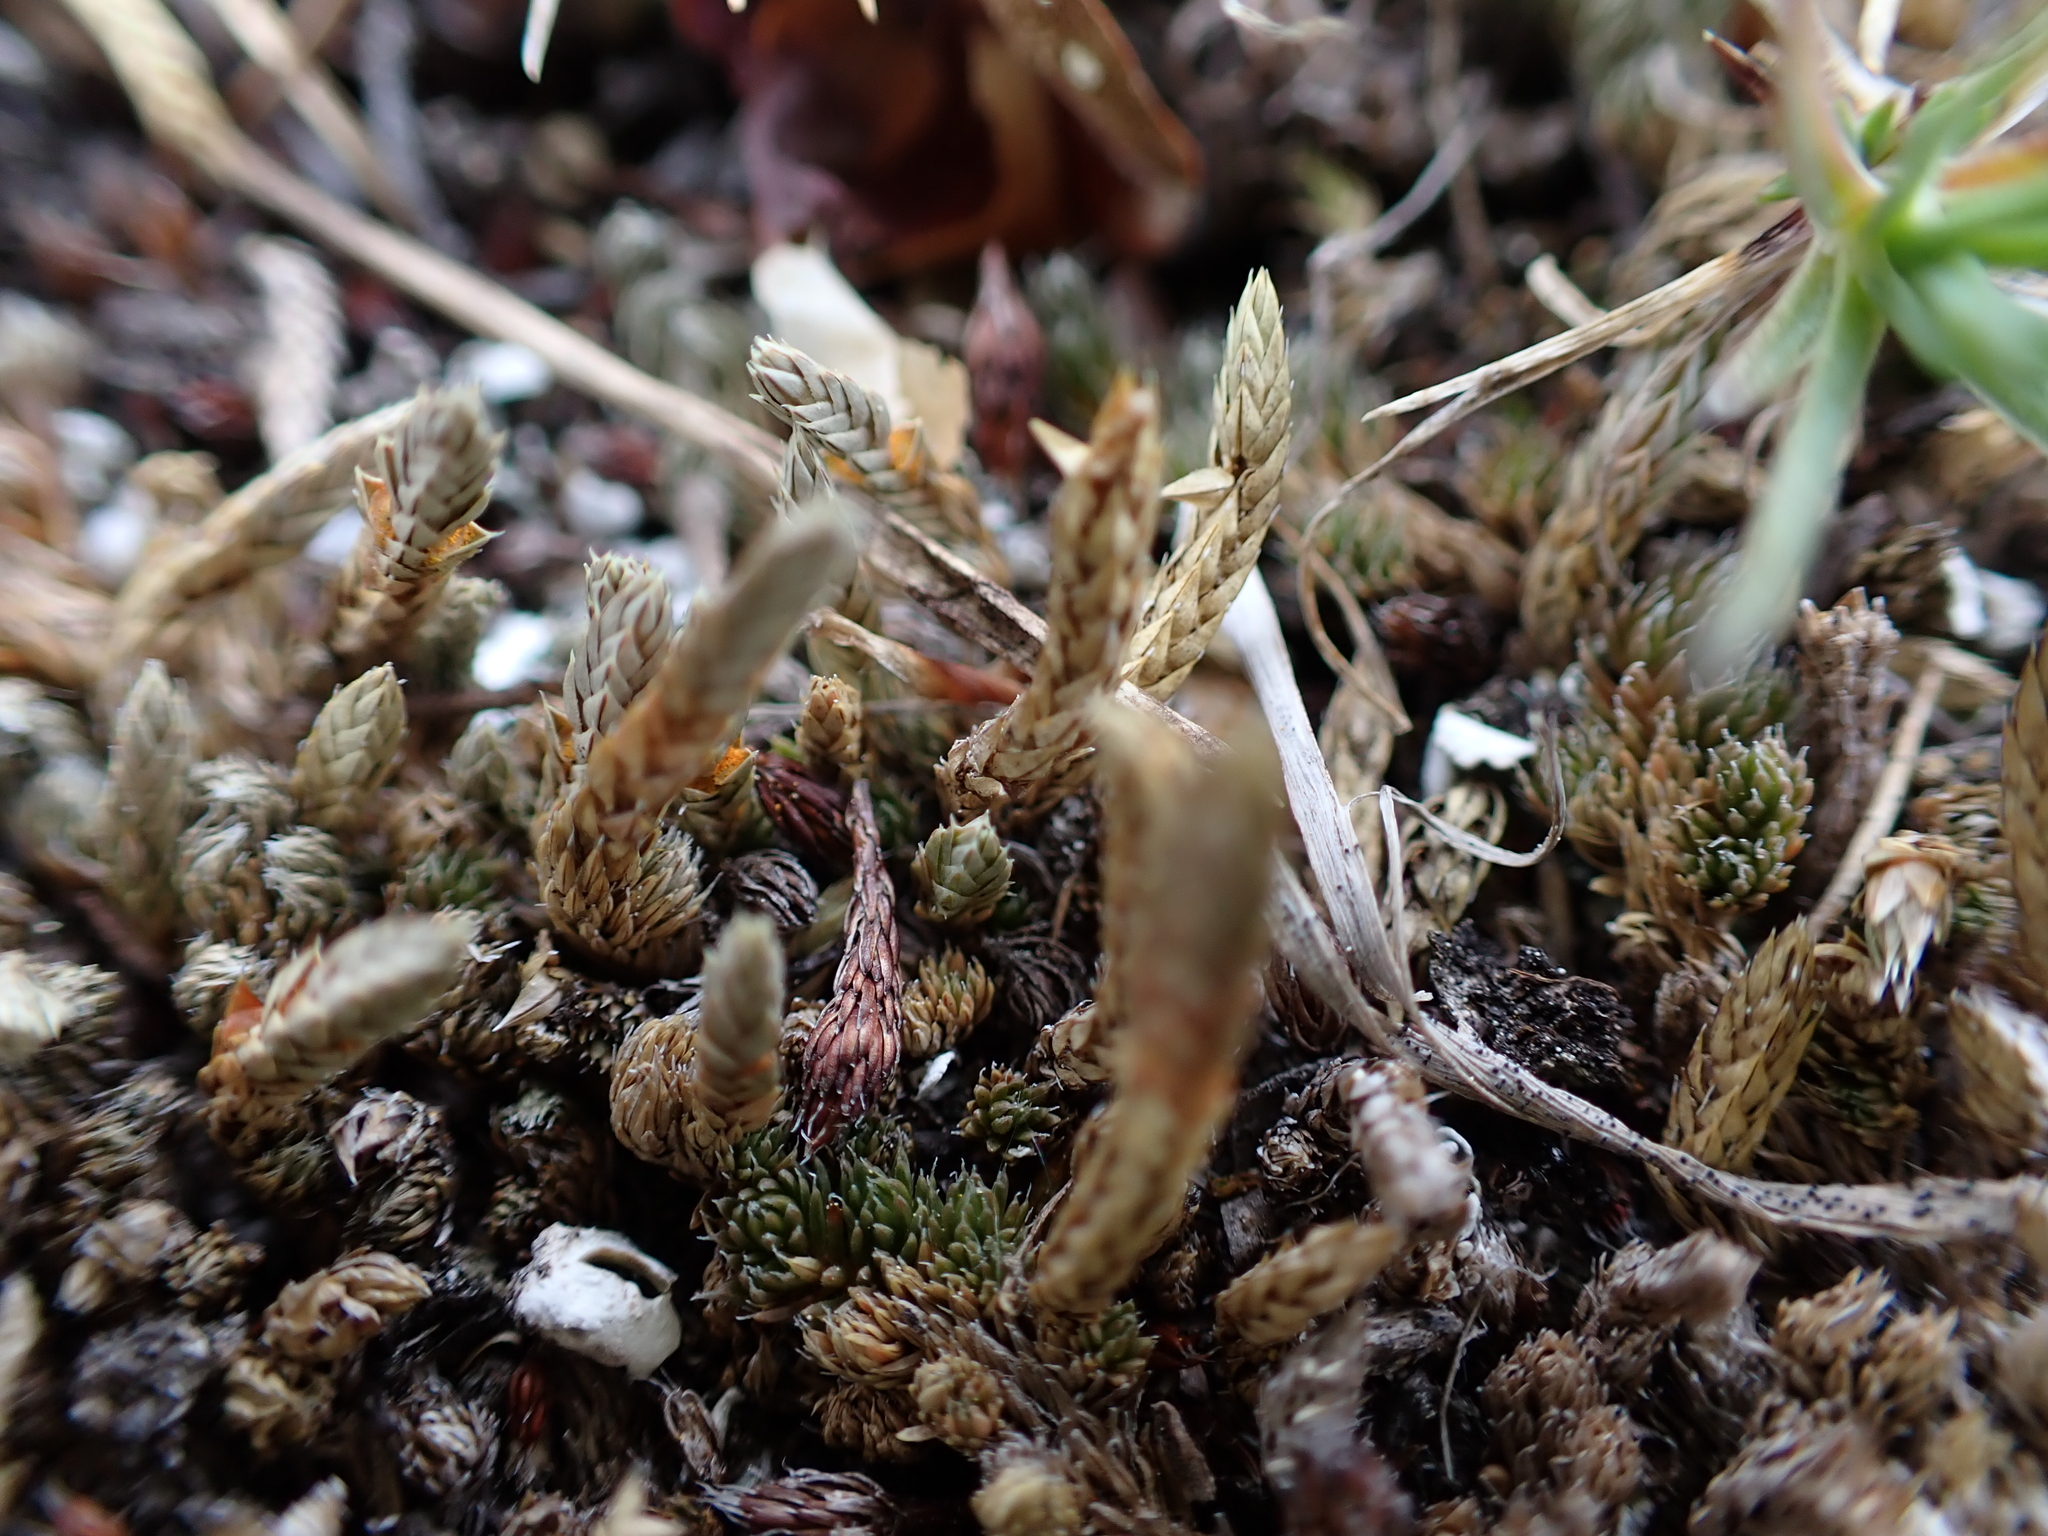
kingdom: Plantae
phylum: Tracheophyta
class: Lycopodiopsida
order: Selaginellales
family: Selaginellaceae
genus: Selaginella
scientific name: Selaginella densa
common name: Mountain spike-moss
